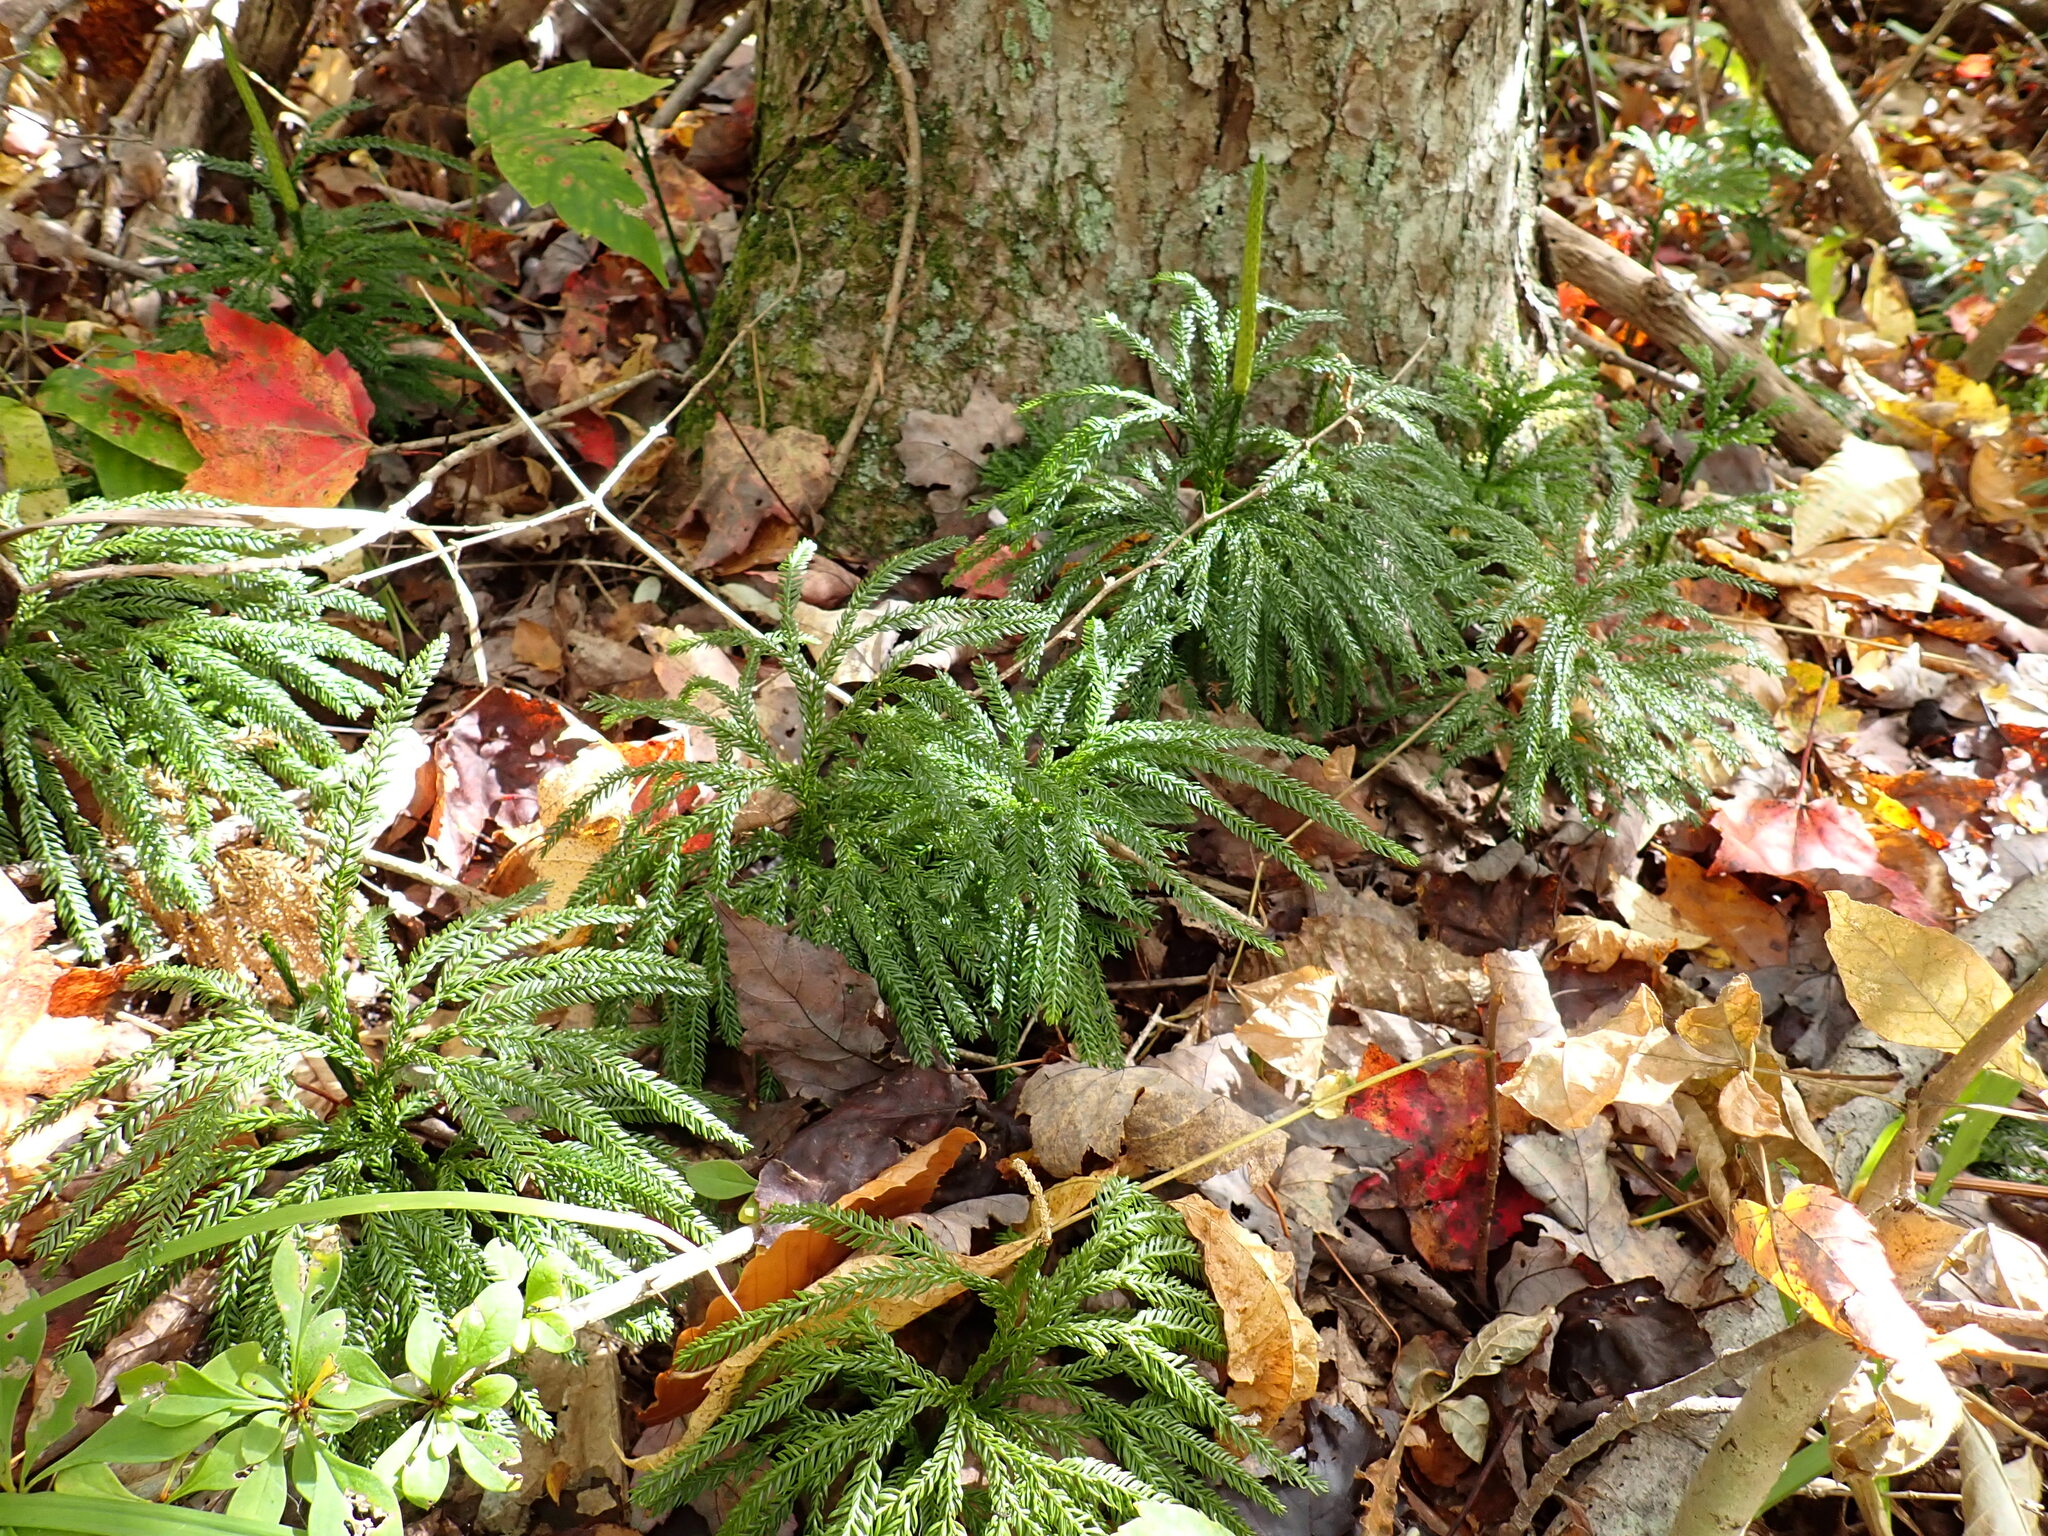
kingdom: Plantae
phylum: Tracheophyta
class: Lycopodiopsida
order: Lycopodiales
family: Lycopodiaceae
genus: Dendrolycopodium
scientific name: Dendrolycopodium obscurum
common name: Common ground-pine
